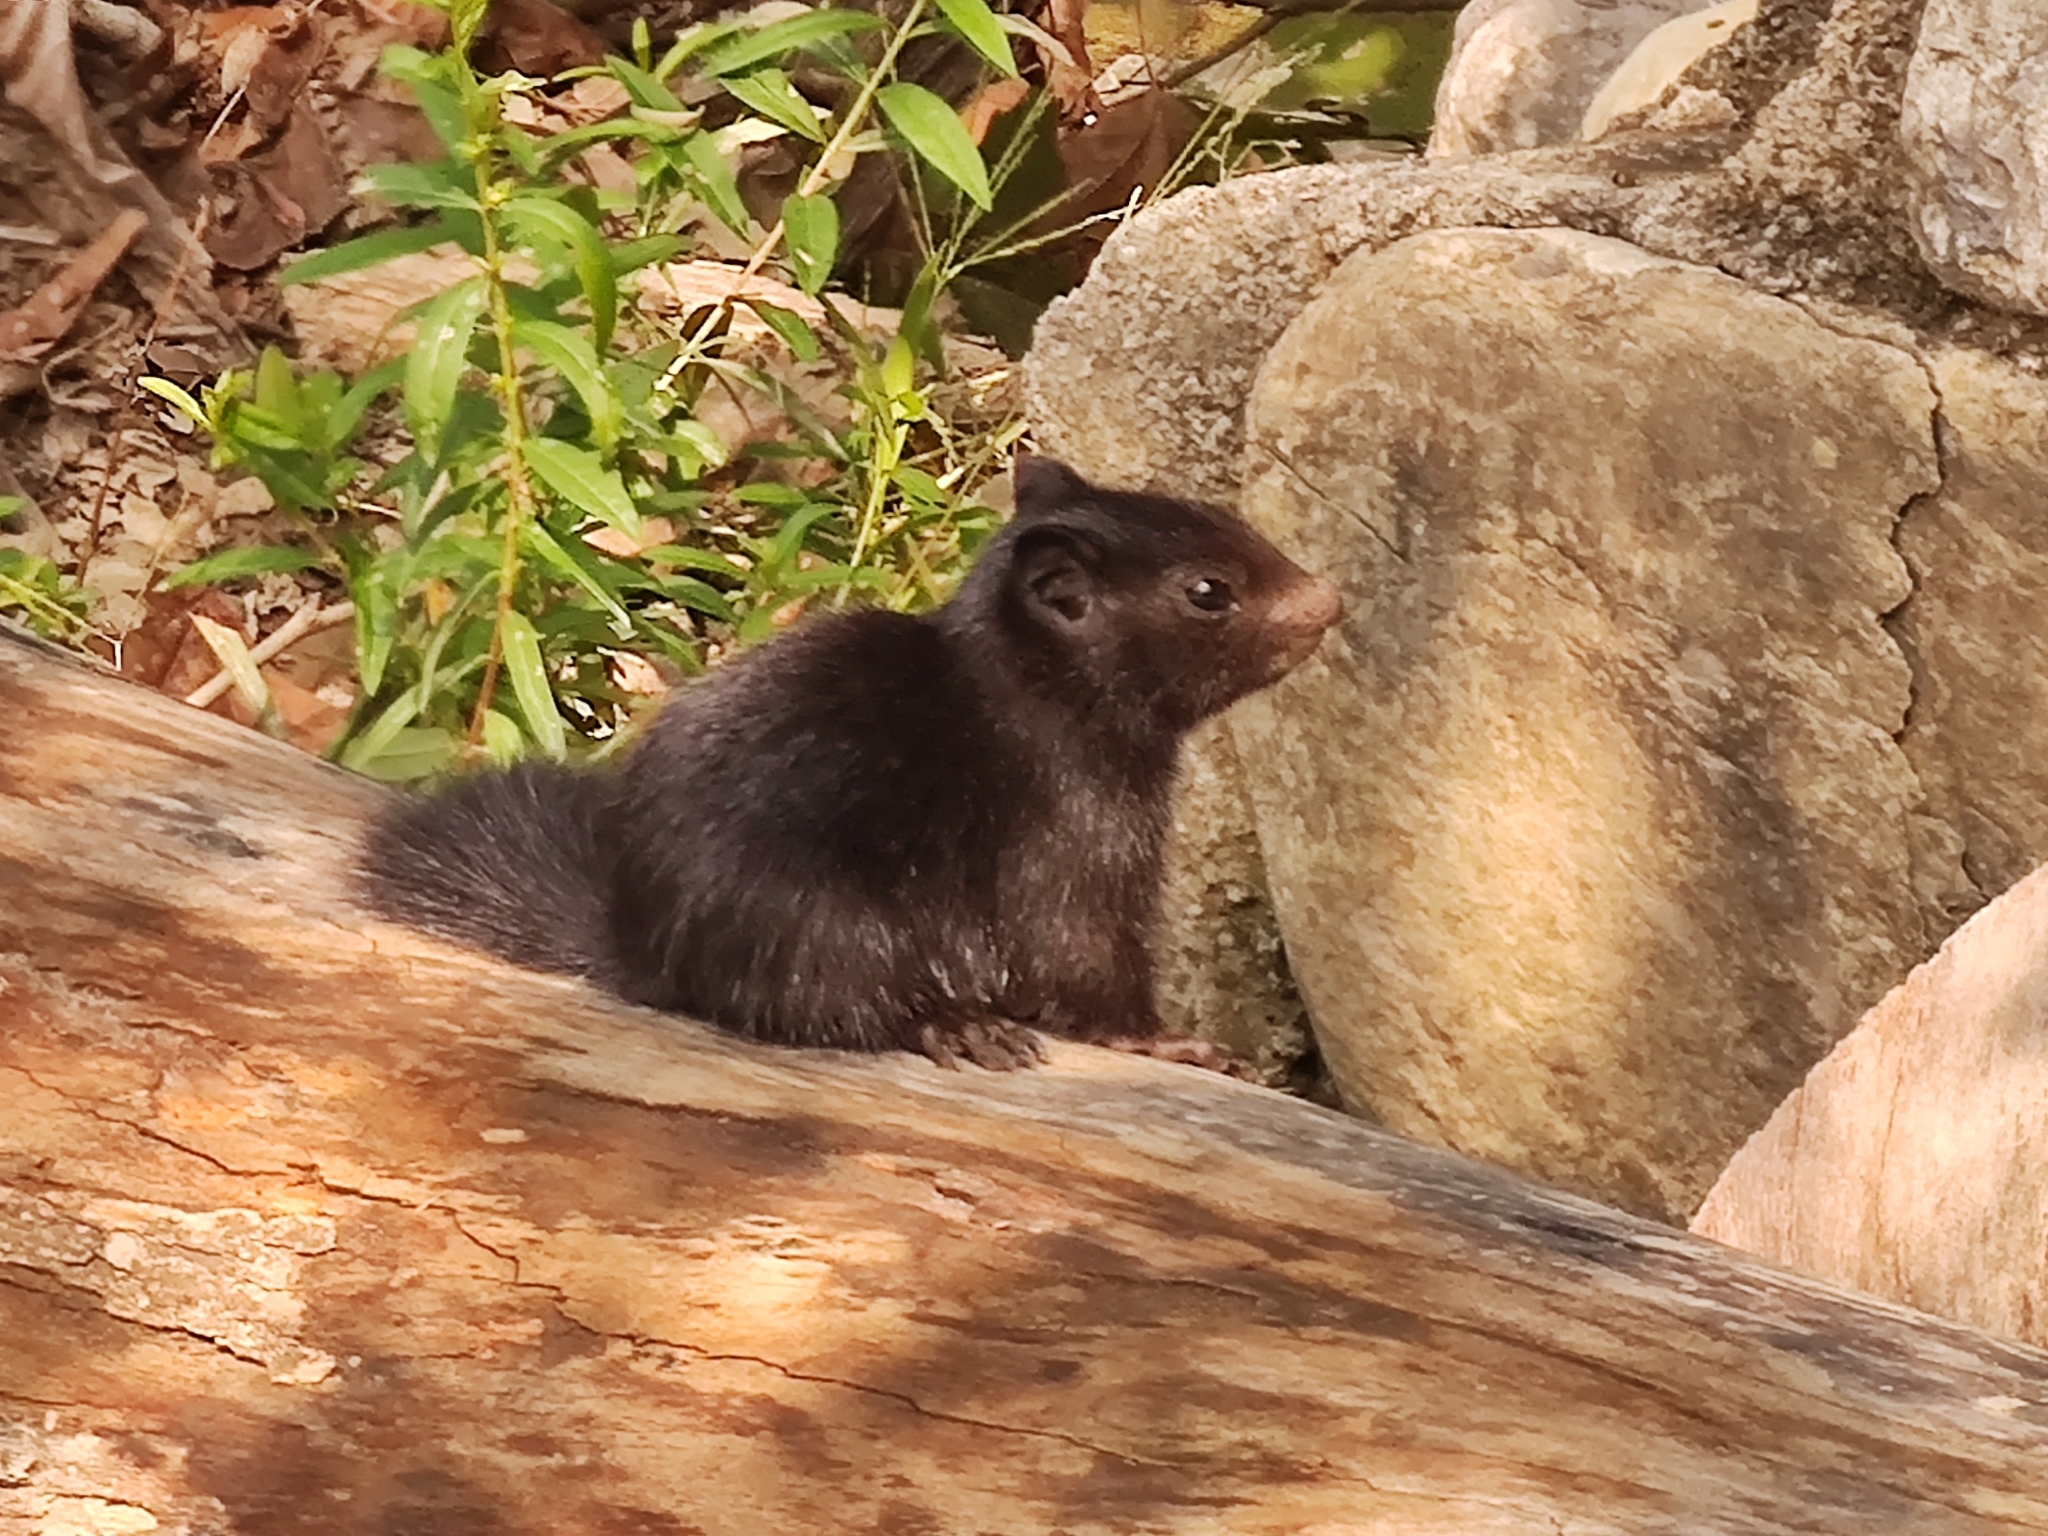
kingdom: Animalia
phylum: Chordata
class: Mammalia
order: Rodentia
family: Sciuridae
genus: Otospermophilus
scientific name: Otospermophilus variegatus
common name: Rock squirrel
